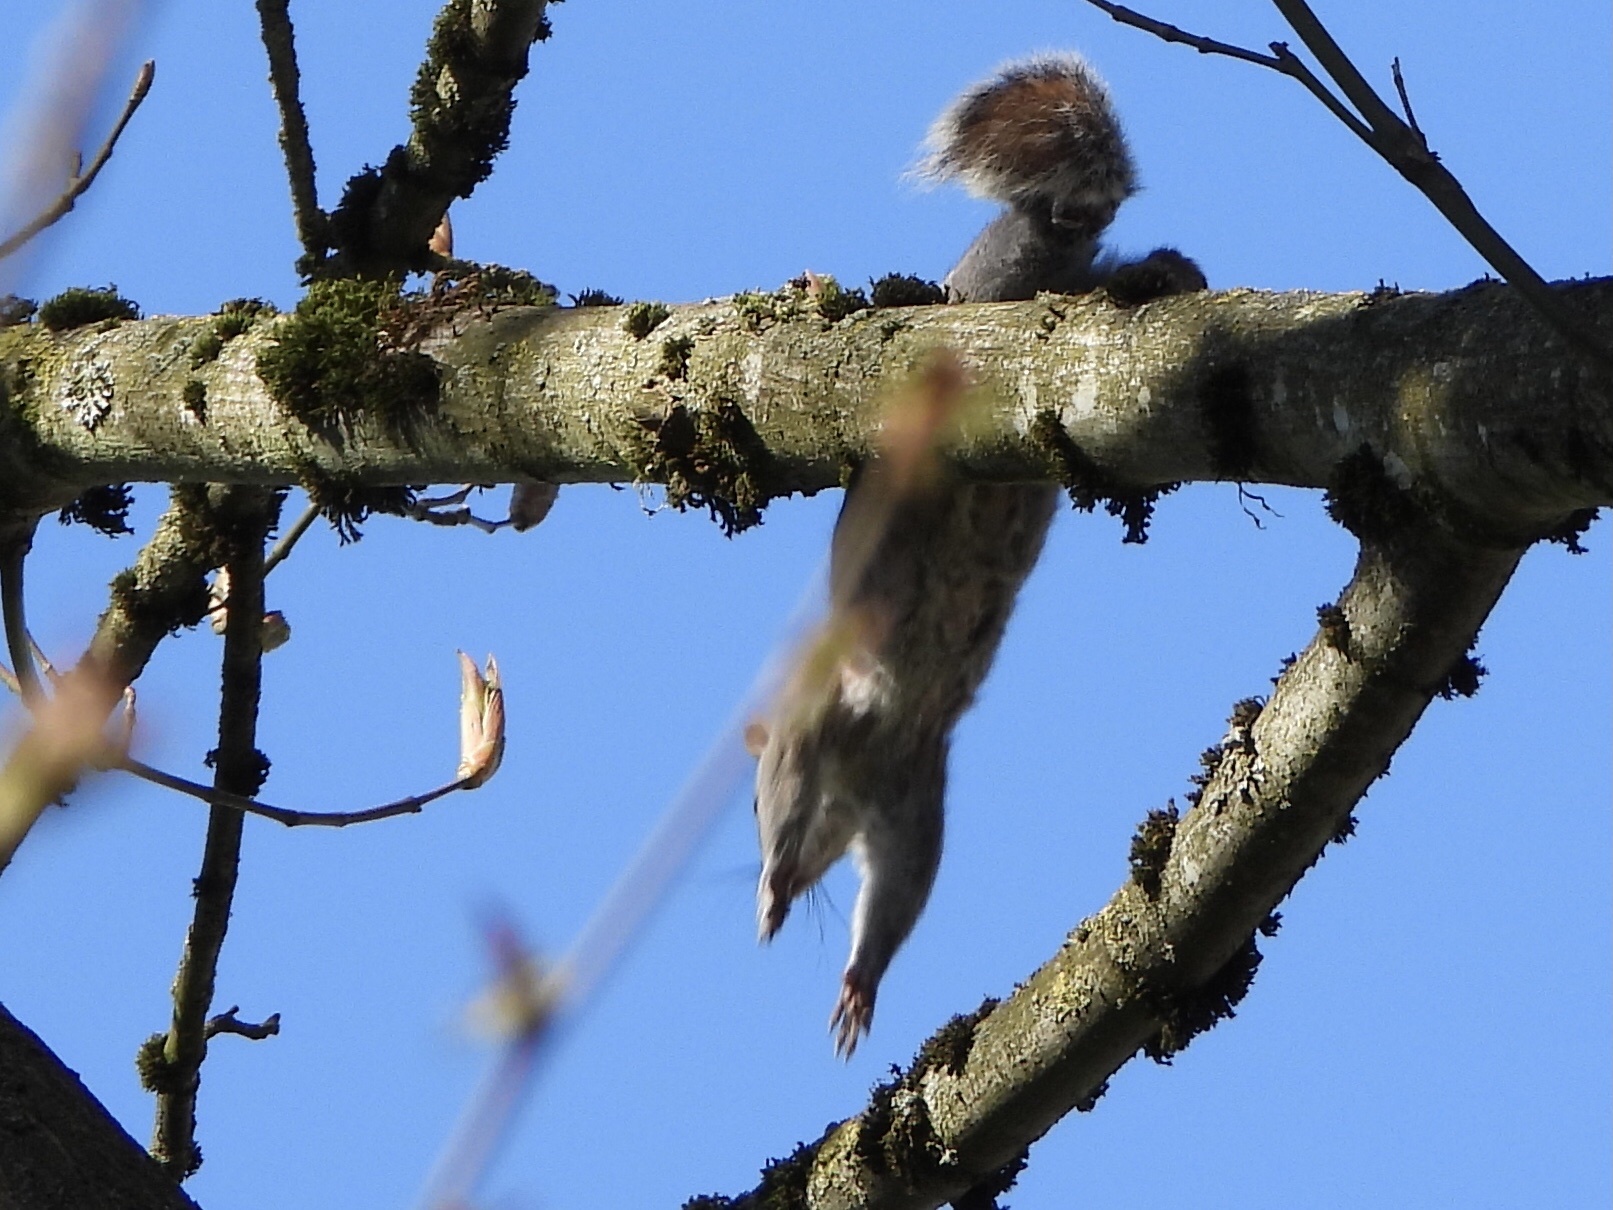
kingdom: Animalia
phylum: Chordata
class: Mammalia
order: Rodentia
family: Sciuridae
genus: Sciurus
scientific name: Sciurus carolinensis
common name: Eastern gray squirrel
